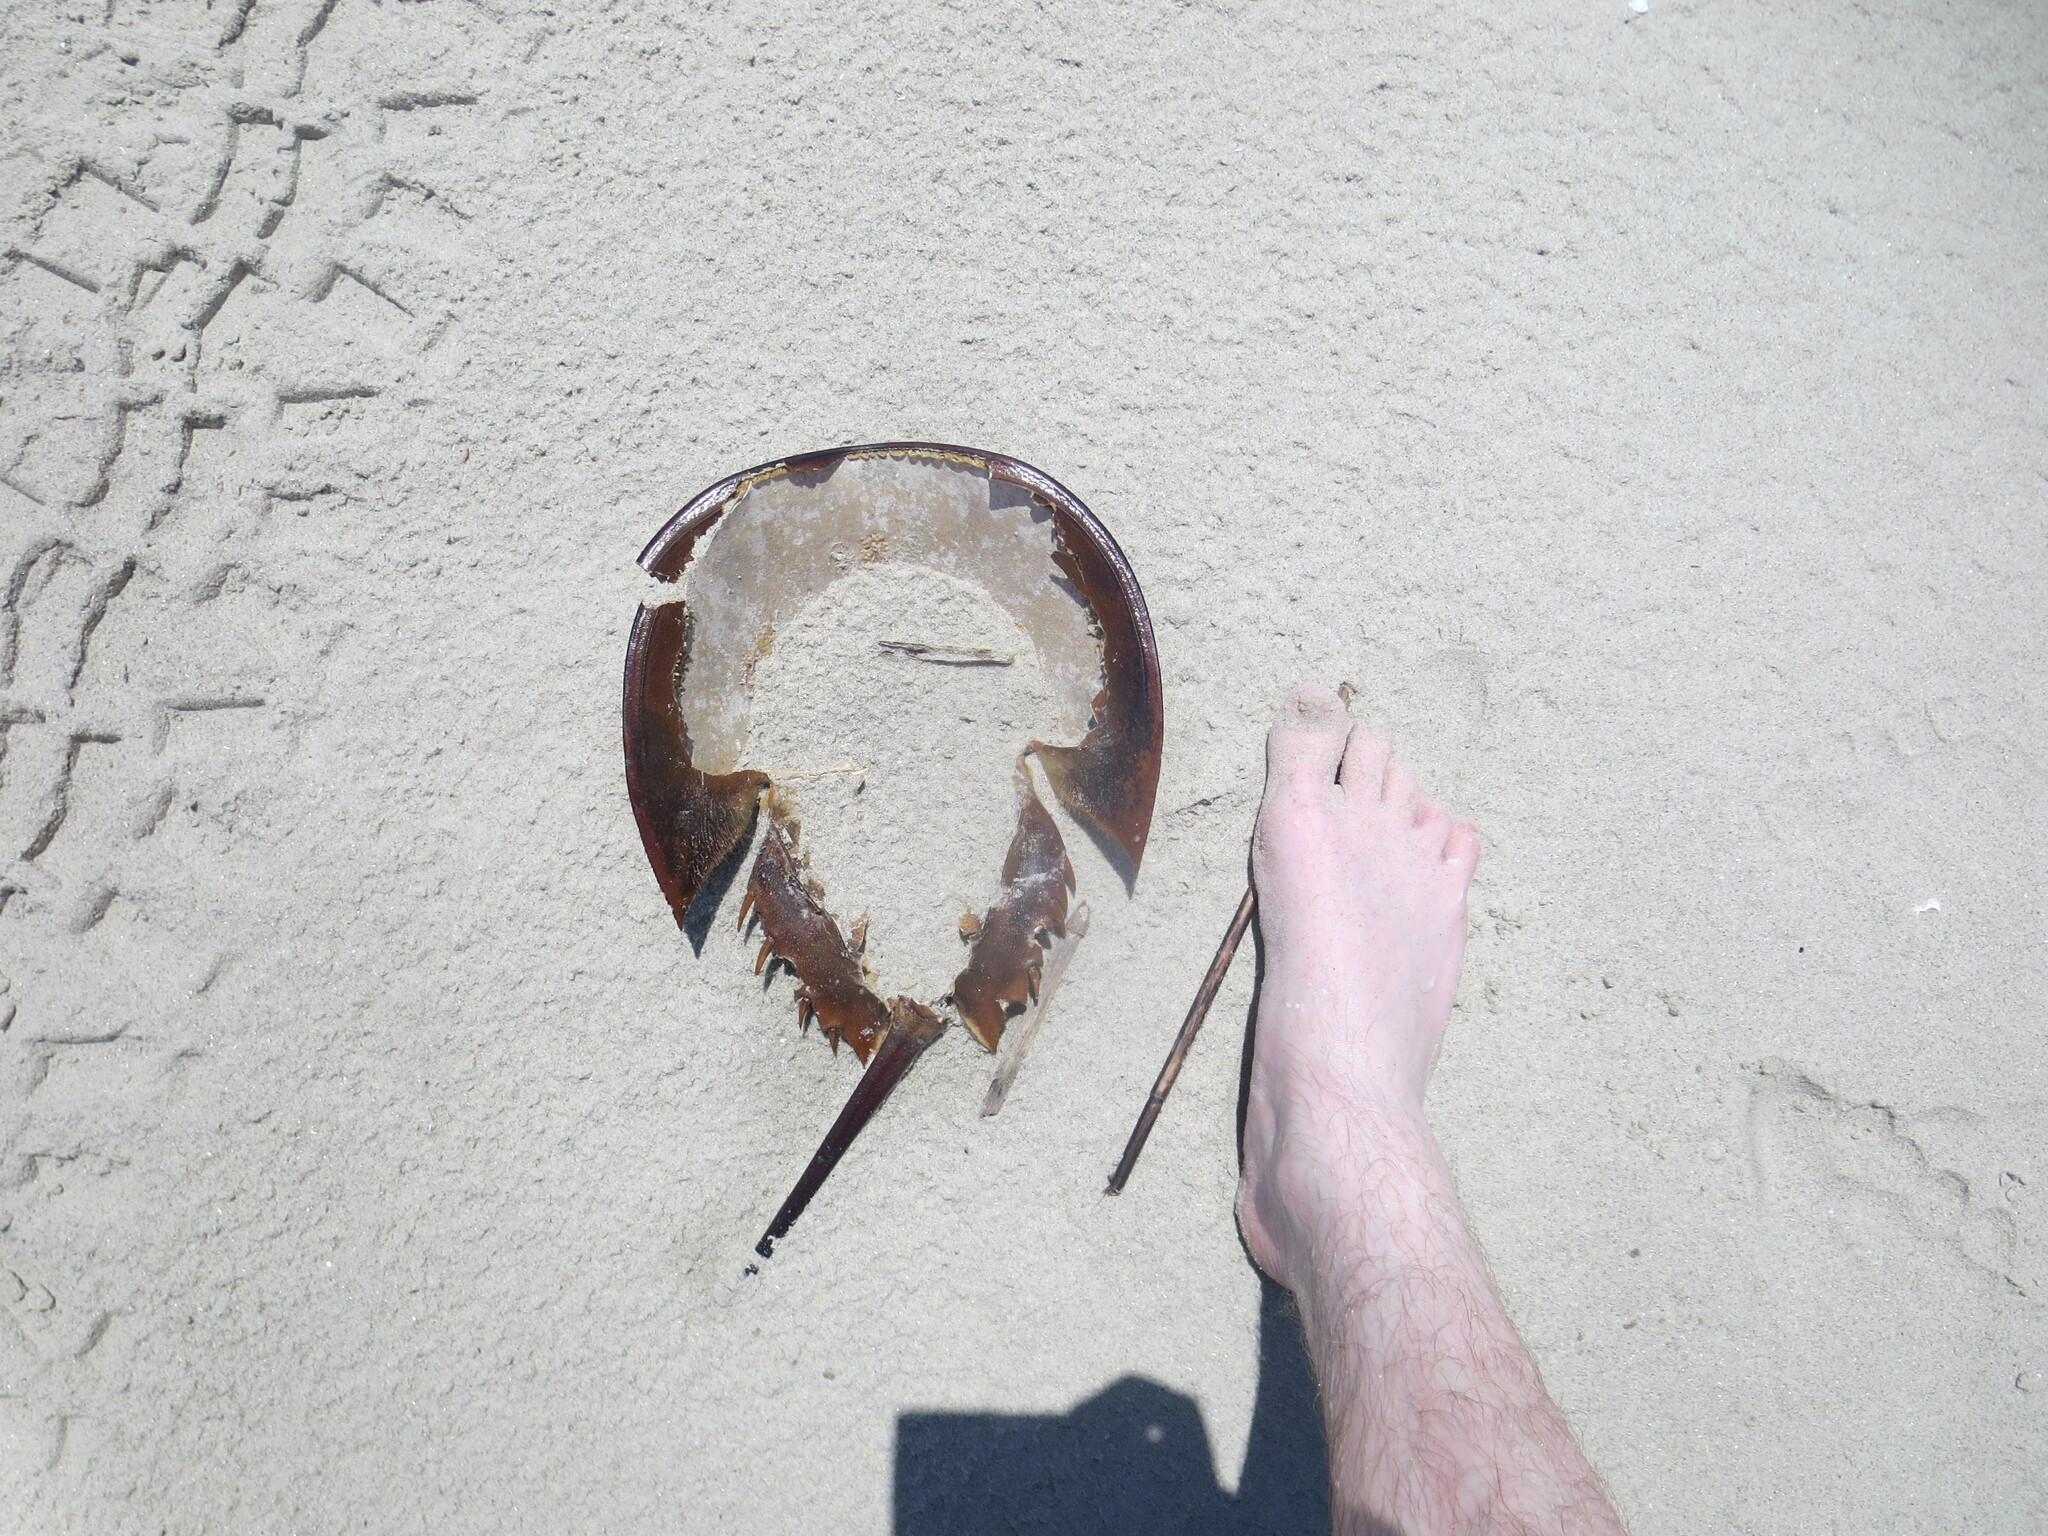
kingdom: Animalia
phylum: Arthropoda
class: Merostomata
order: Xiphosurida
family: Limulidae
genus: Limulus
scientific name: Limulus polyphemus
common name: Horseshoe crab
